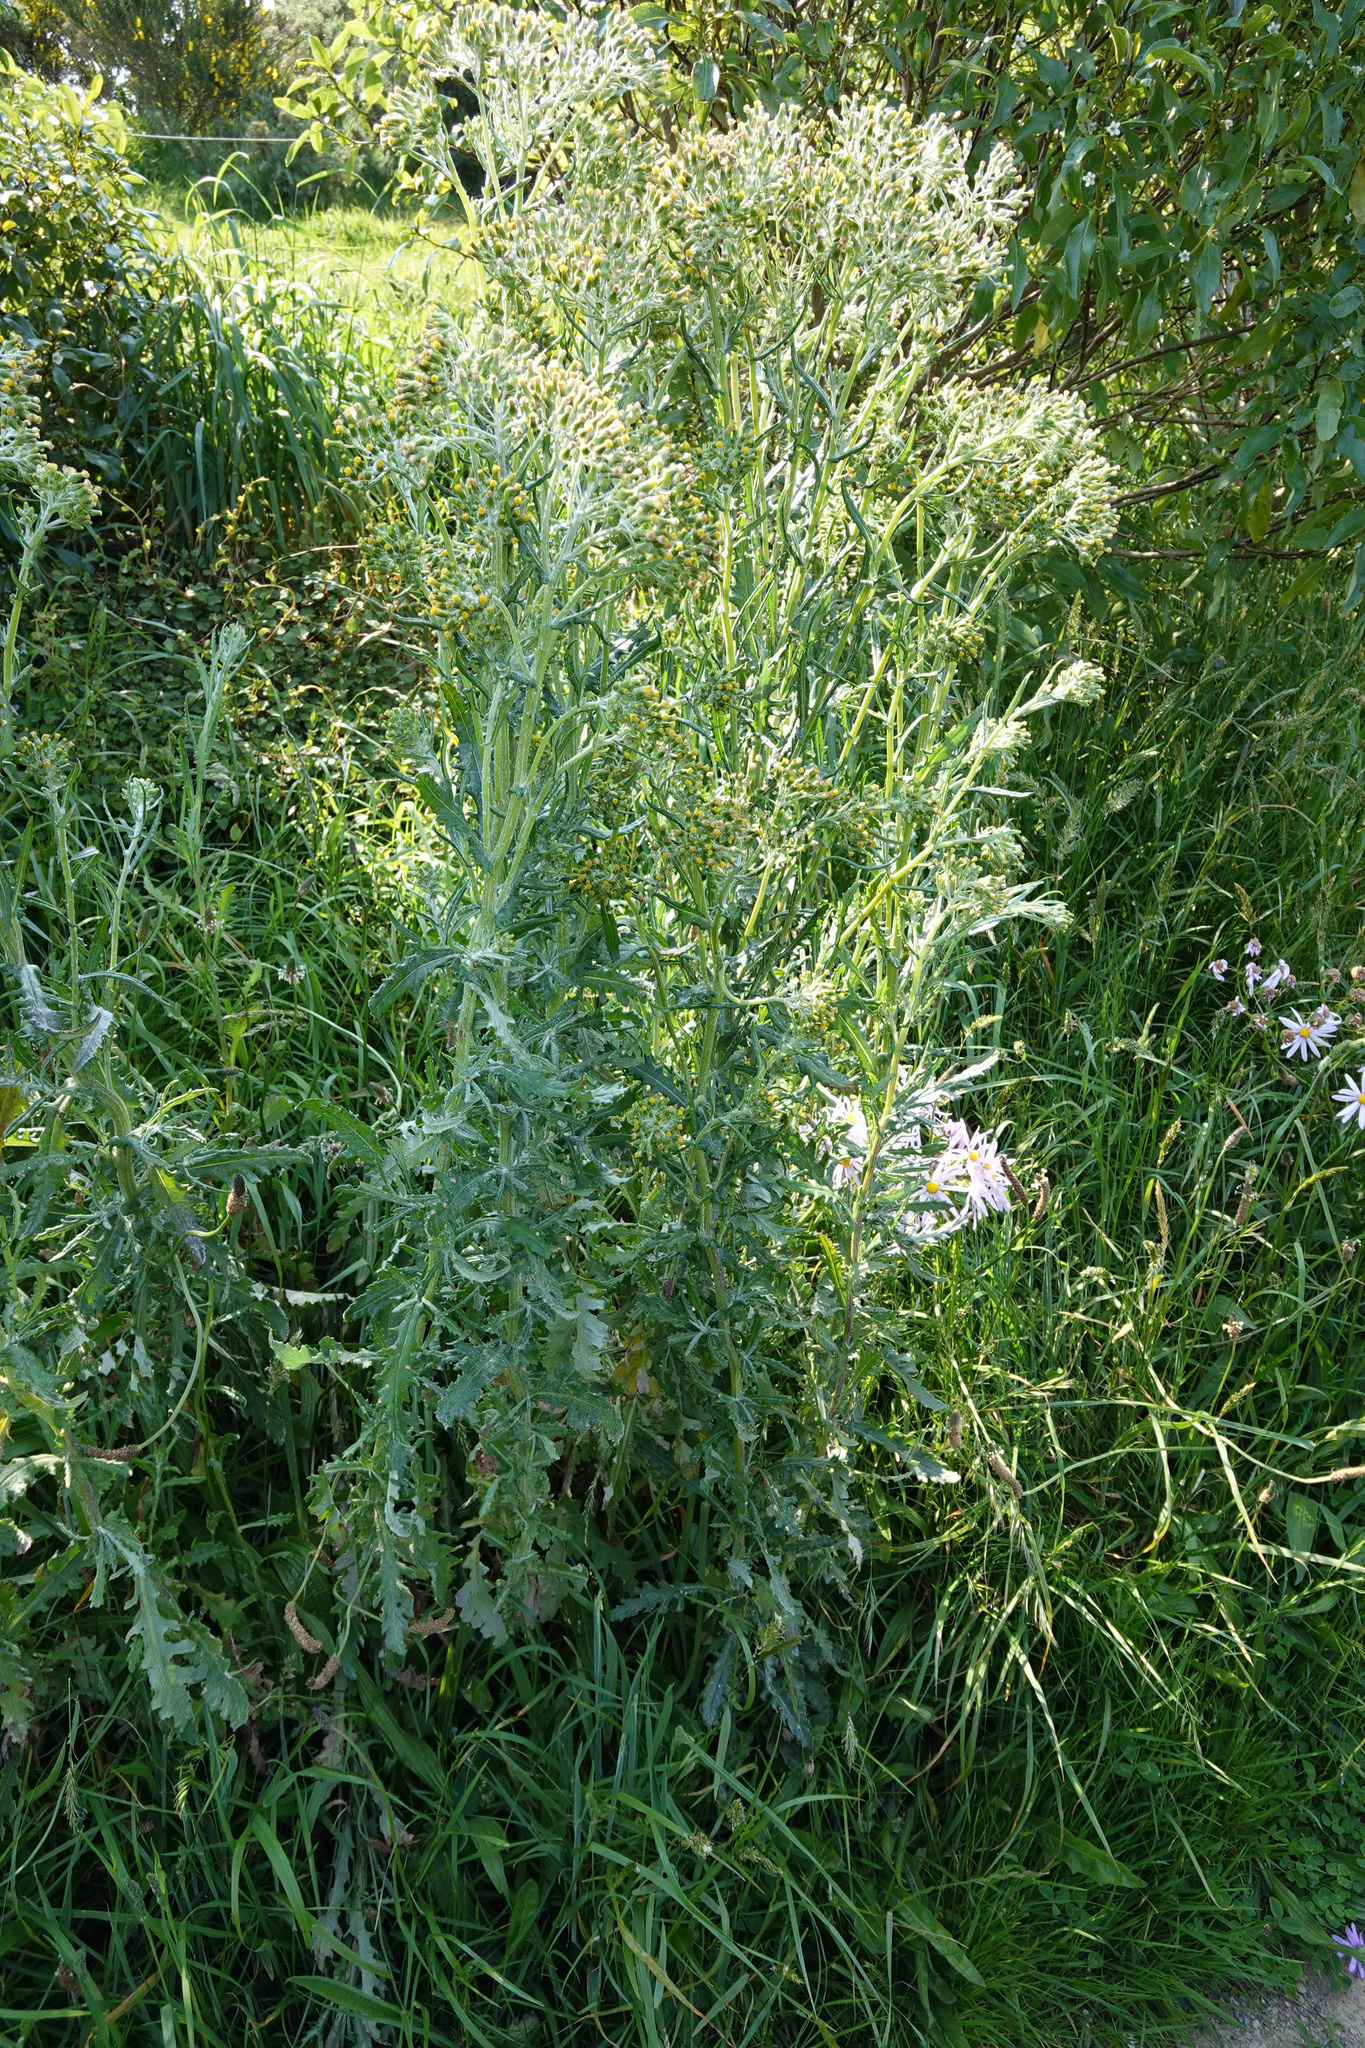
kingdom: Plantae
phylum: Tracheophyta
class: Magnoliopsida
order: Asterales
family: Asteraceae
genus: Senecio
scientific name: Senecio glomeratus
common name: Cutleaf burnweed
